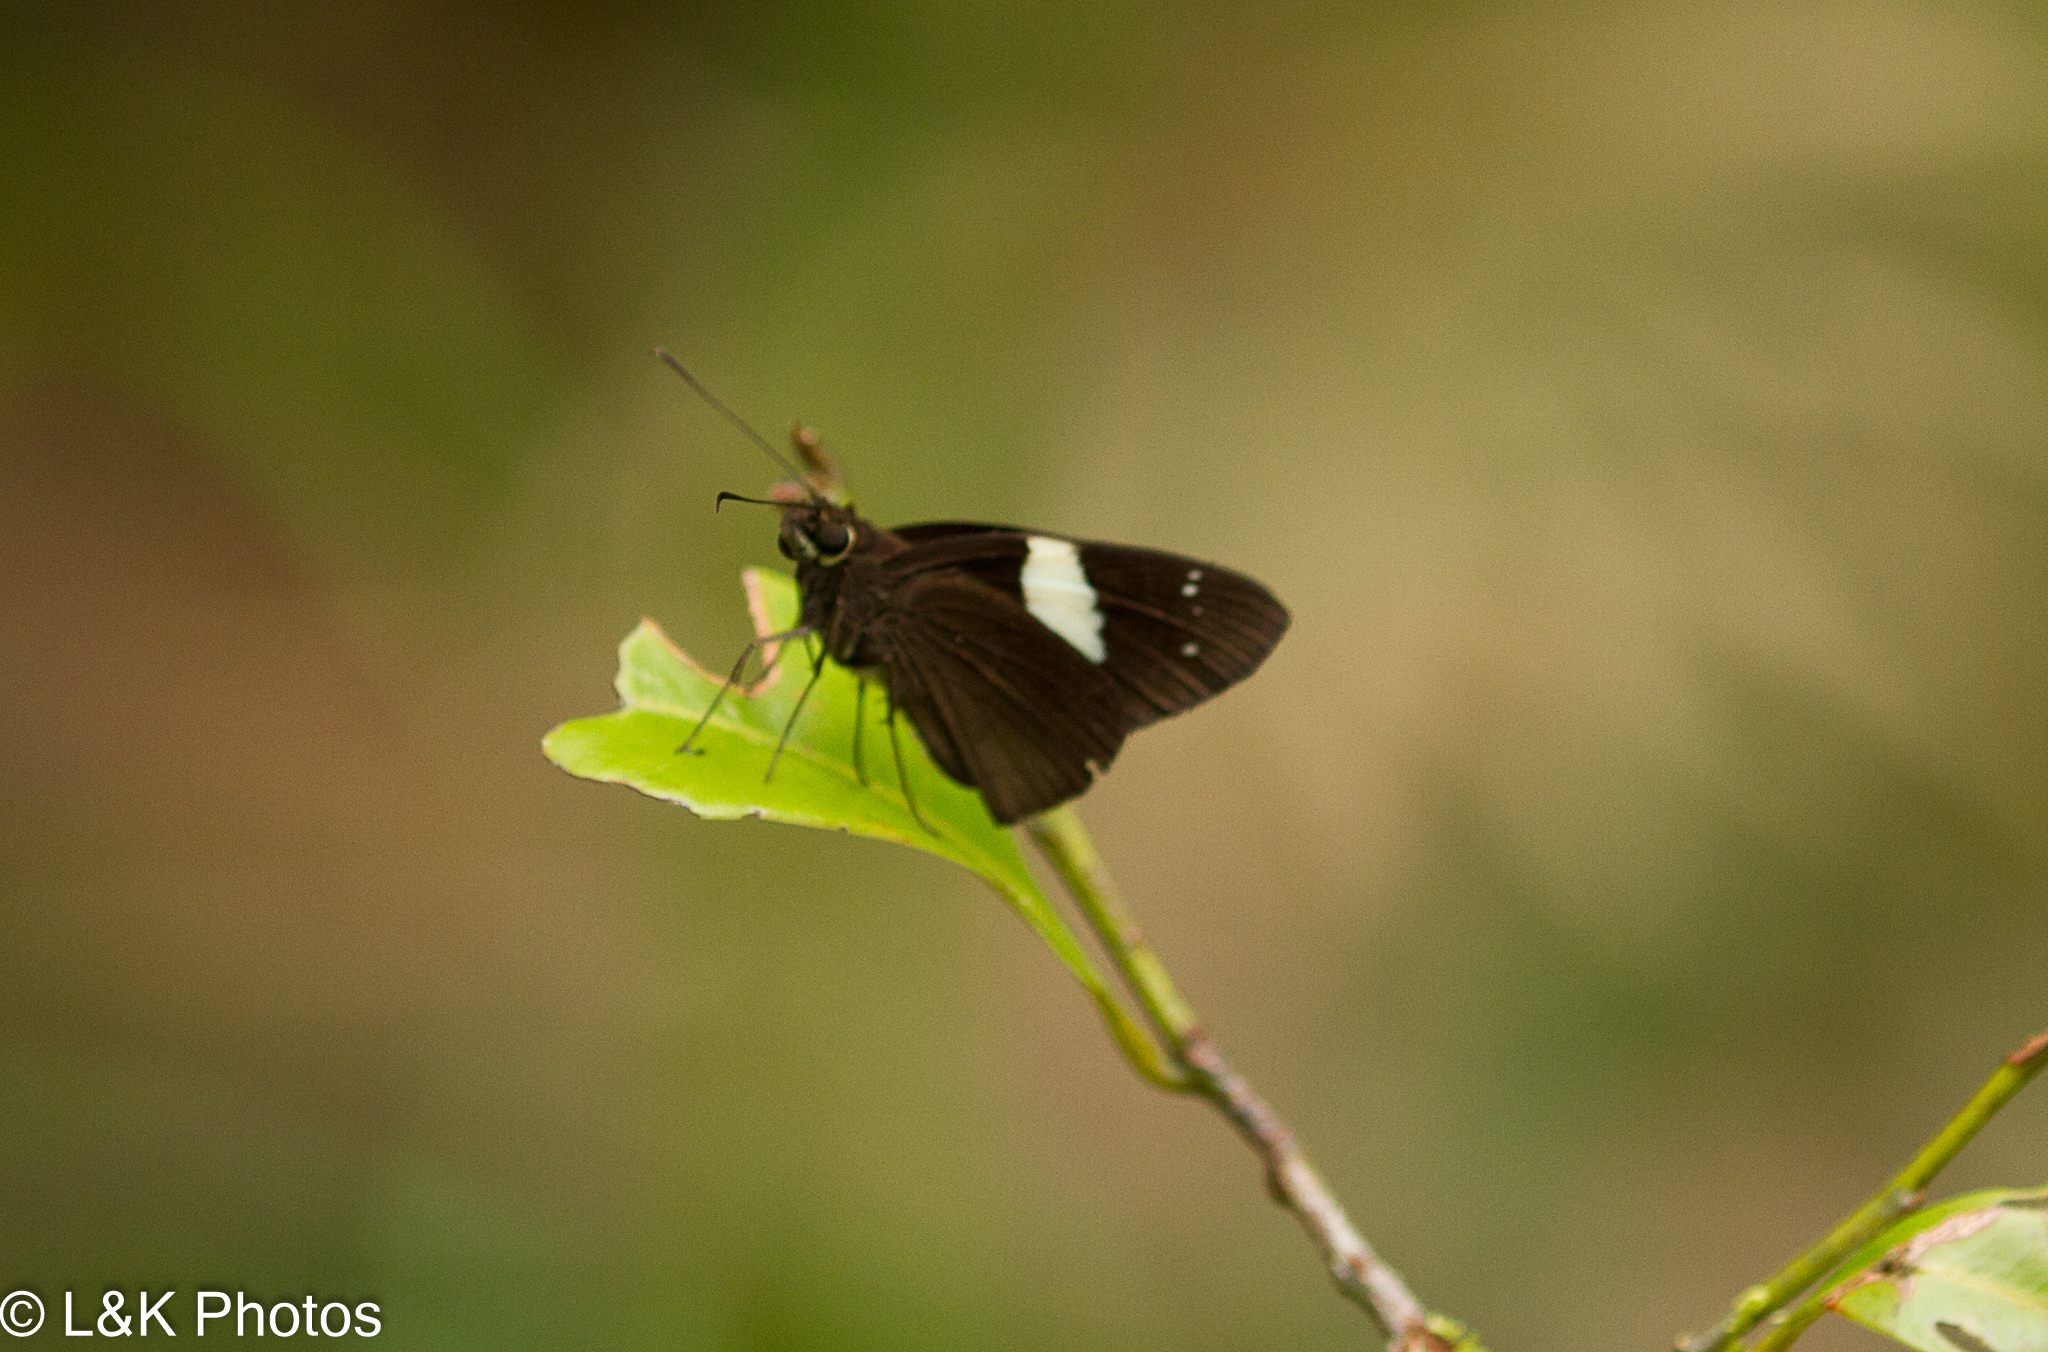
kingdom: Animalia
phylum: Arthropoda
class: Insecta
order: Lepidoptera
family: Hesperiidae
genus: Notocrypta
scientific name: Notocrypta waigensis
